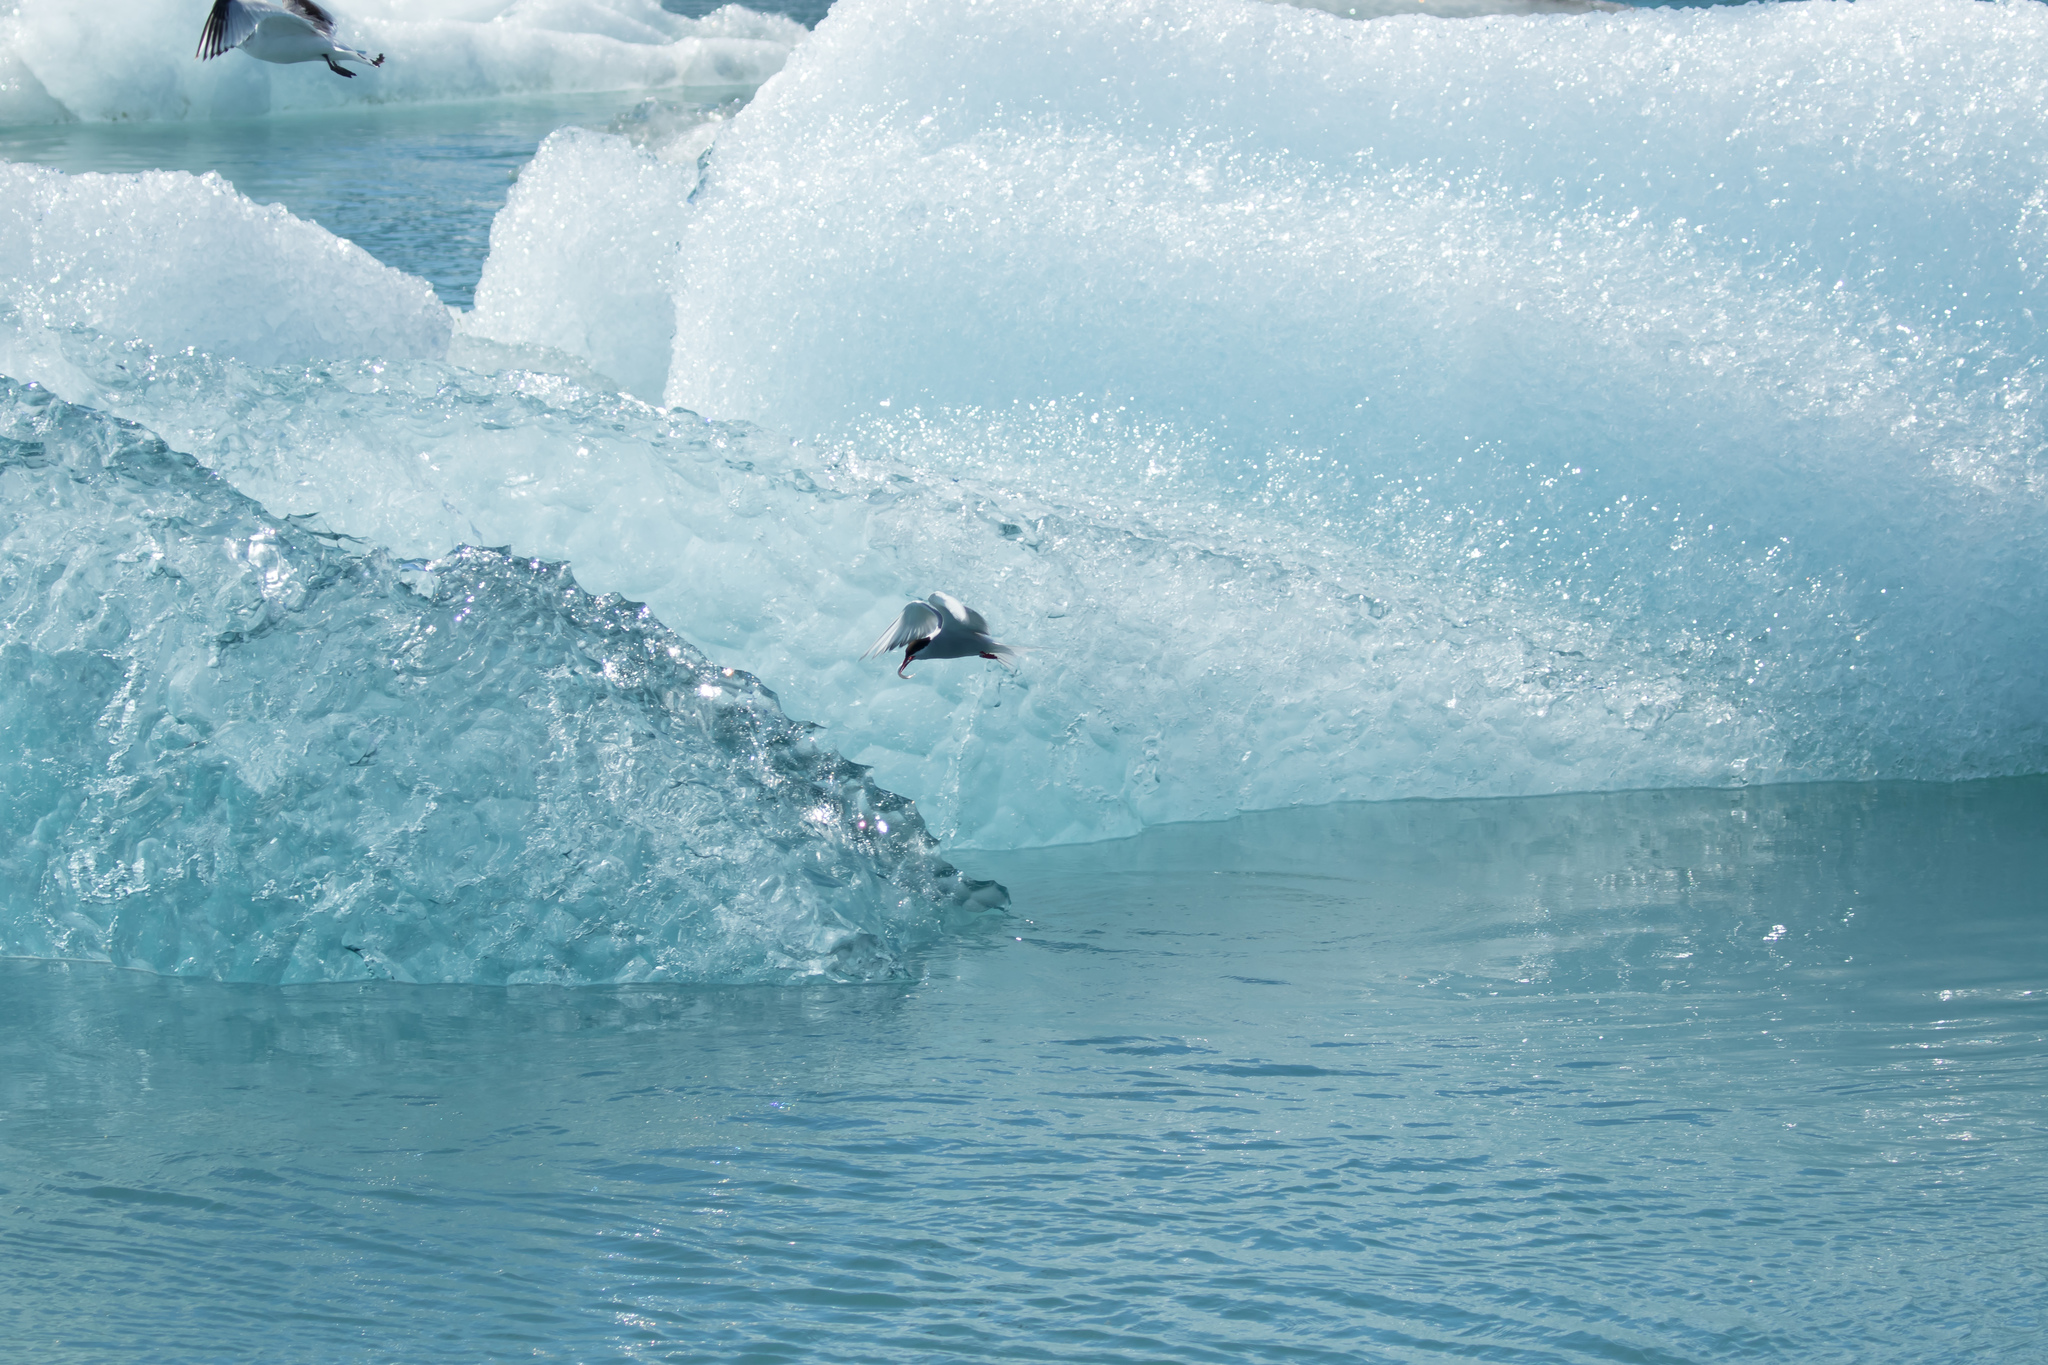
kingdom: Animalia
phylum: Chordata
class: Aves
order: Charadriiformes
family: Laridae
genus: Sterna
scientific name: Sterna paradisaea
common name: Arctic tern
